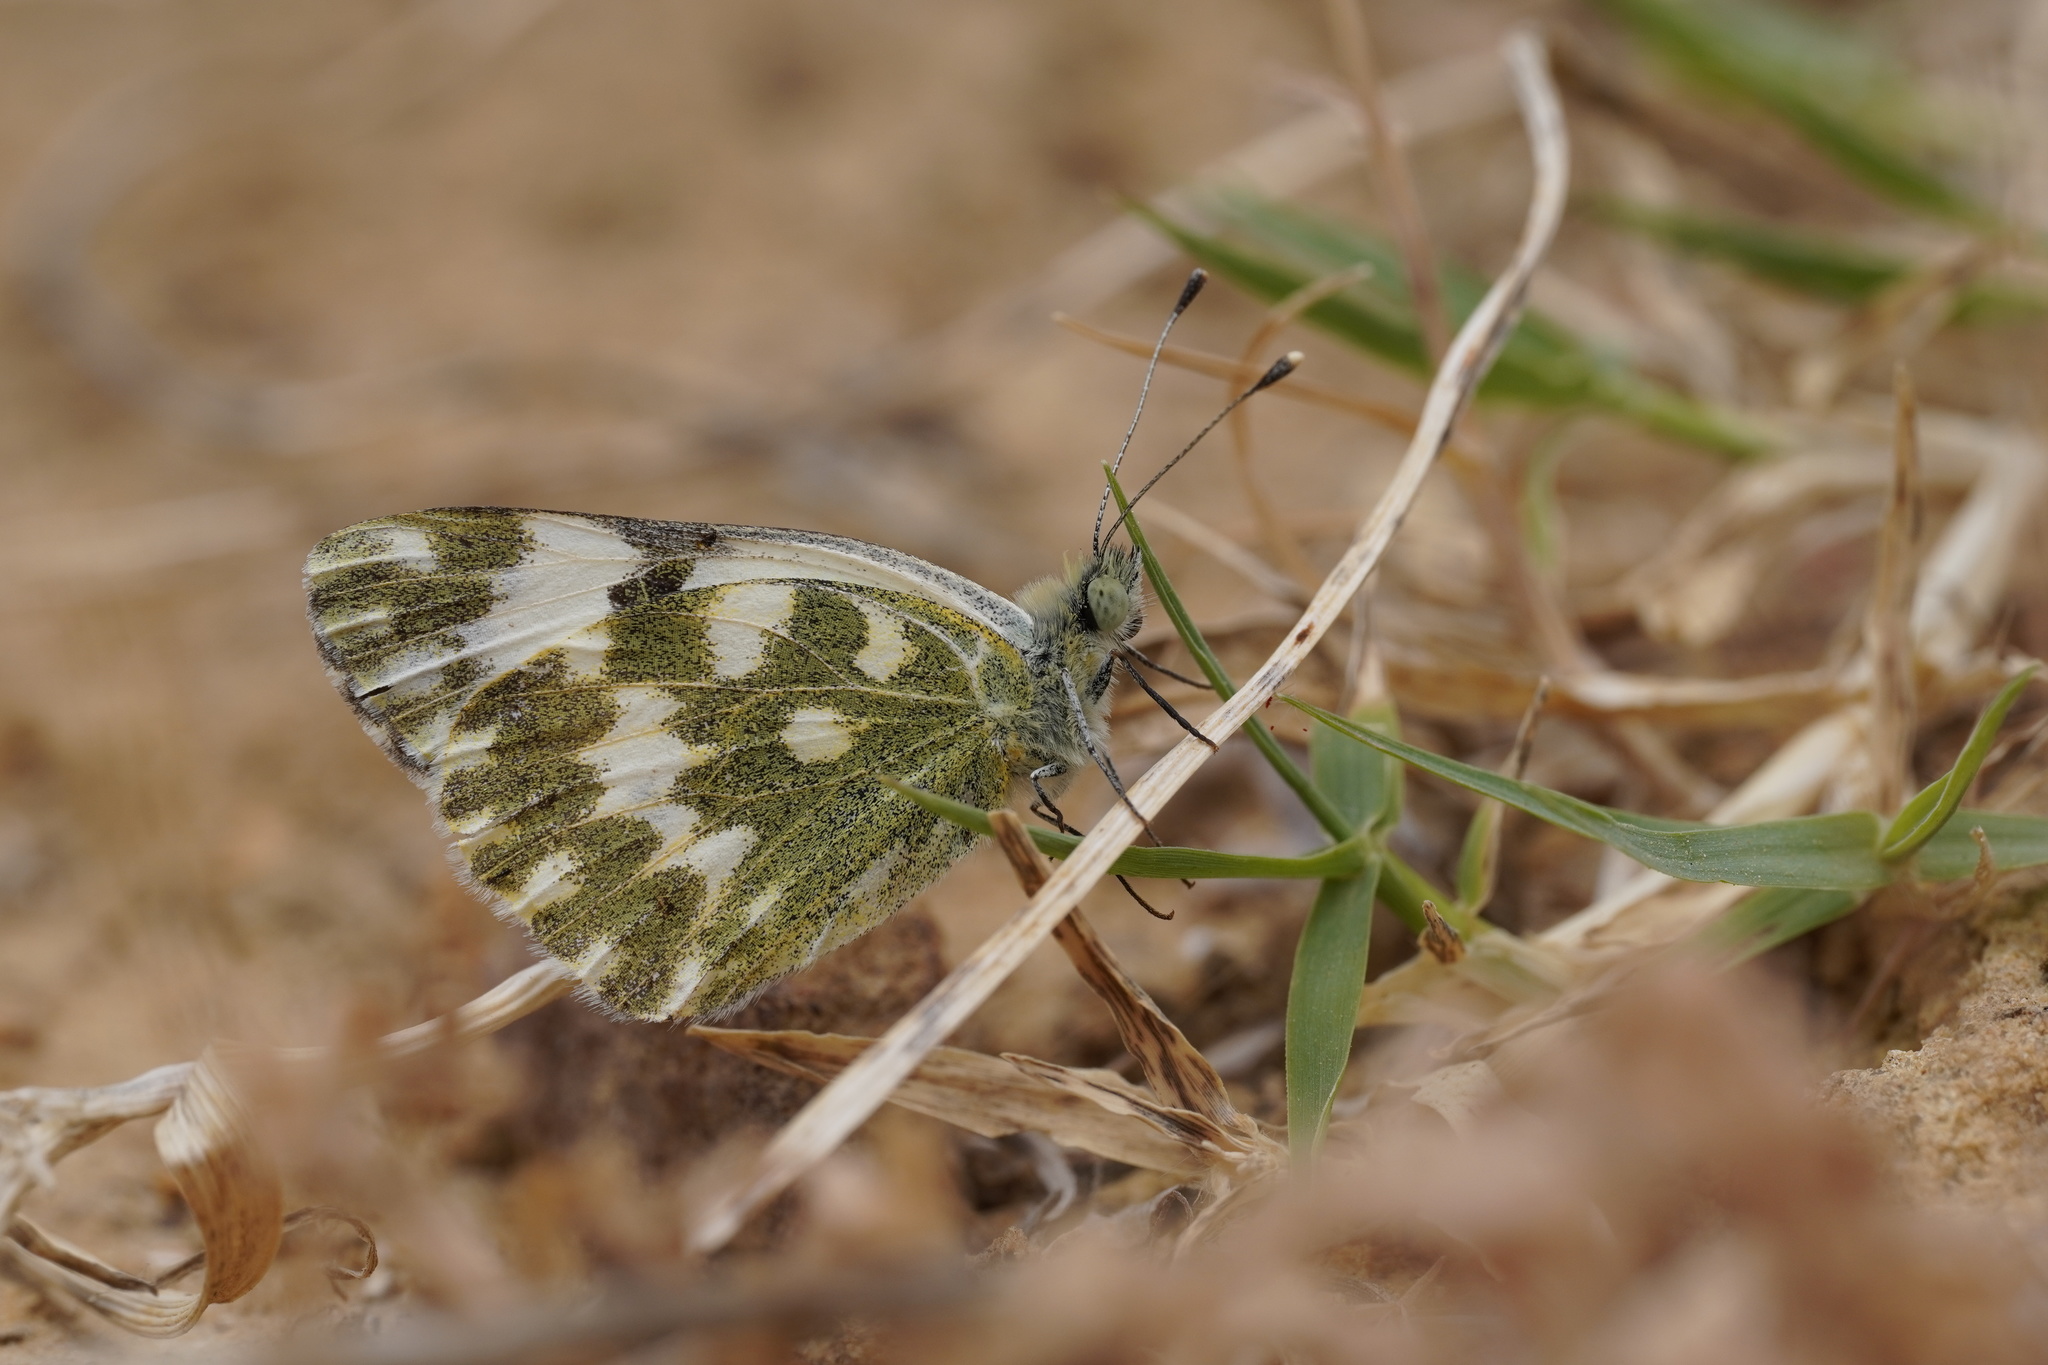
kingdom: Animalia
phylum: Arthropoda
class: Insecta
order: Lepidoptera
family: Pieridae
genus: Pontia
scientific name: Pontia daplidice
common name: Bath white
